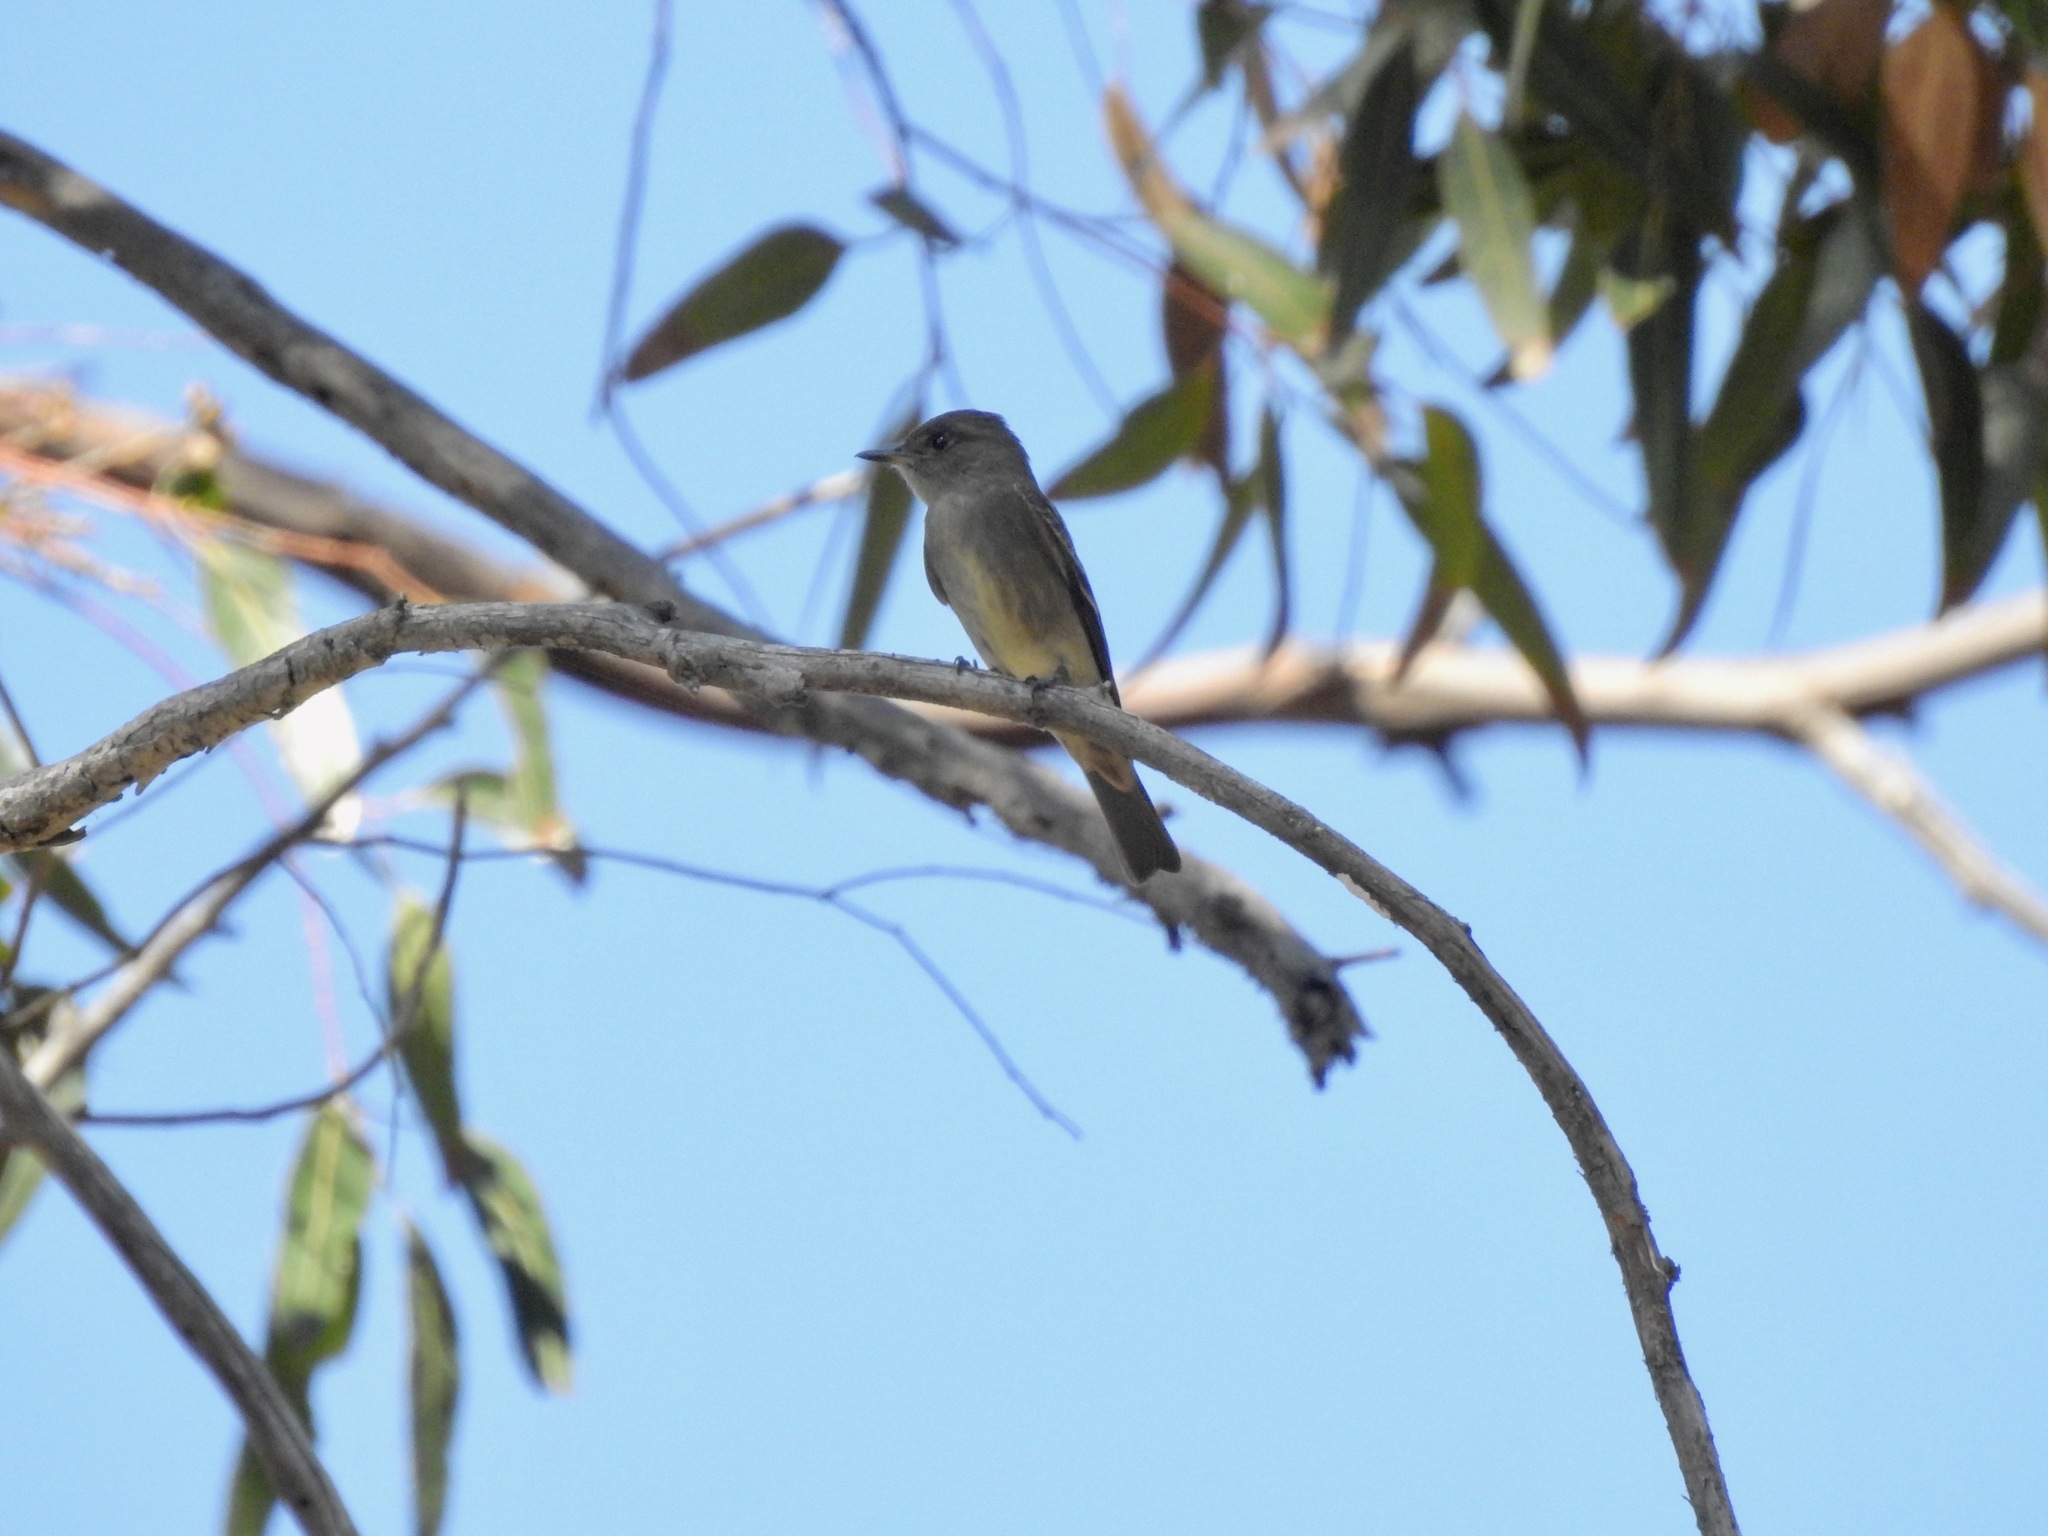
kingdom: Animalia
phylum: Chordata
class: Aves
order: Passeriformes
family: Tyrannidae
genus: Contopus
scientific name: Contopus sordidulus
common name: Western wood-pewee
